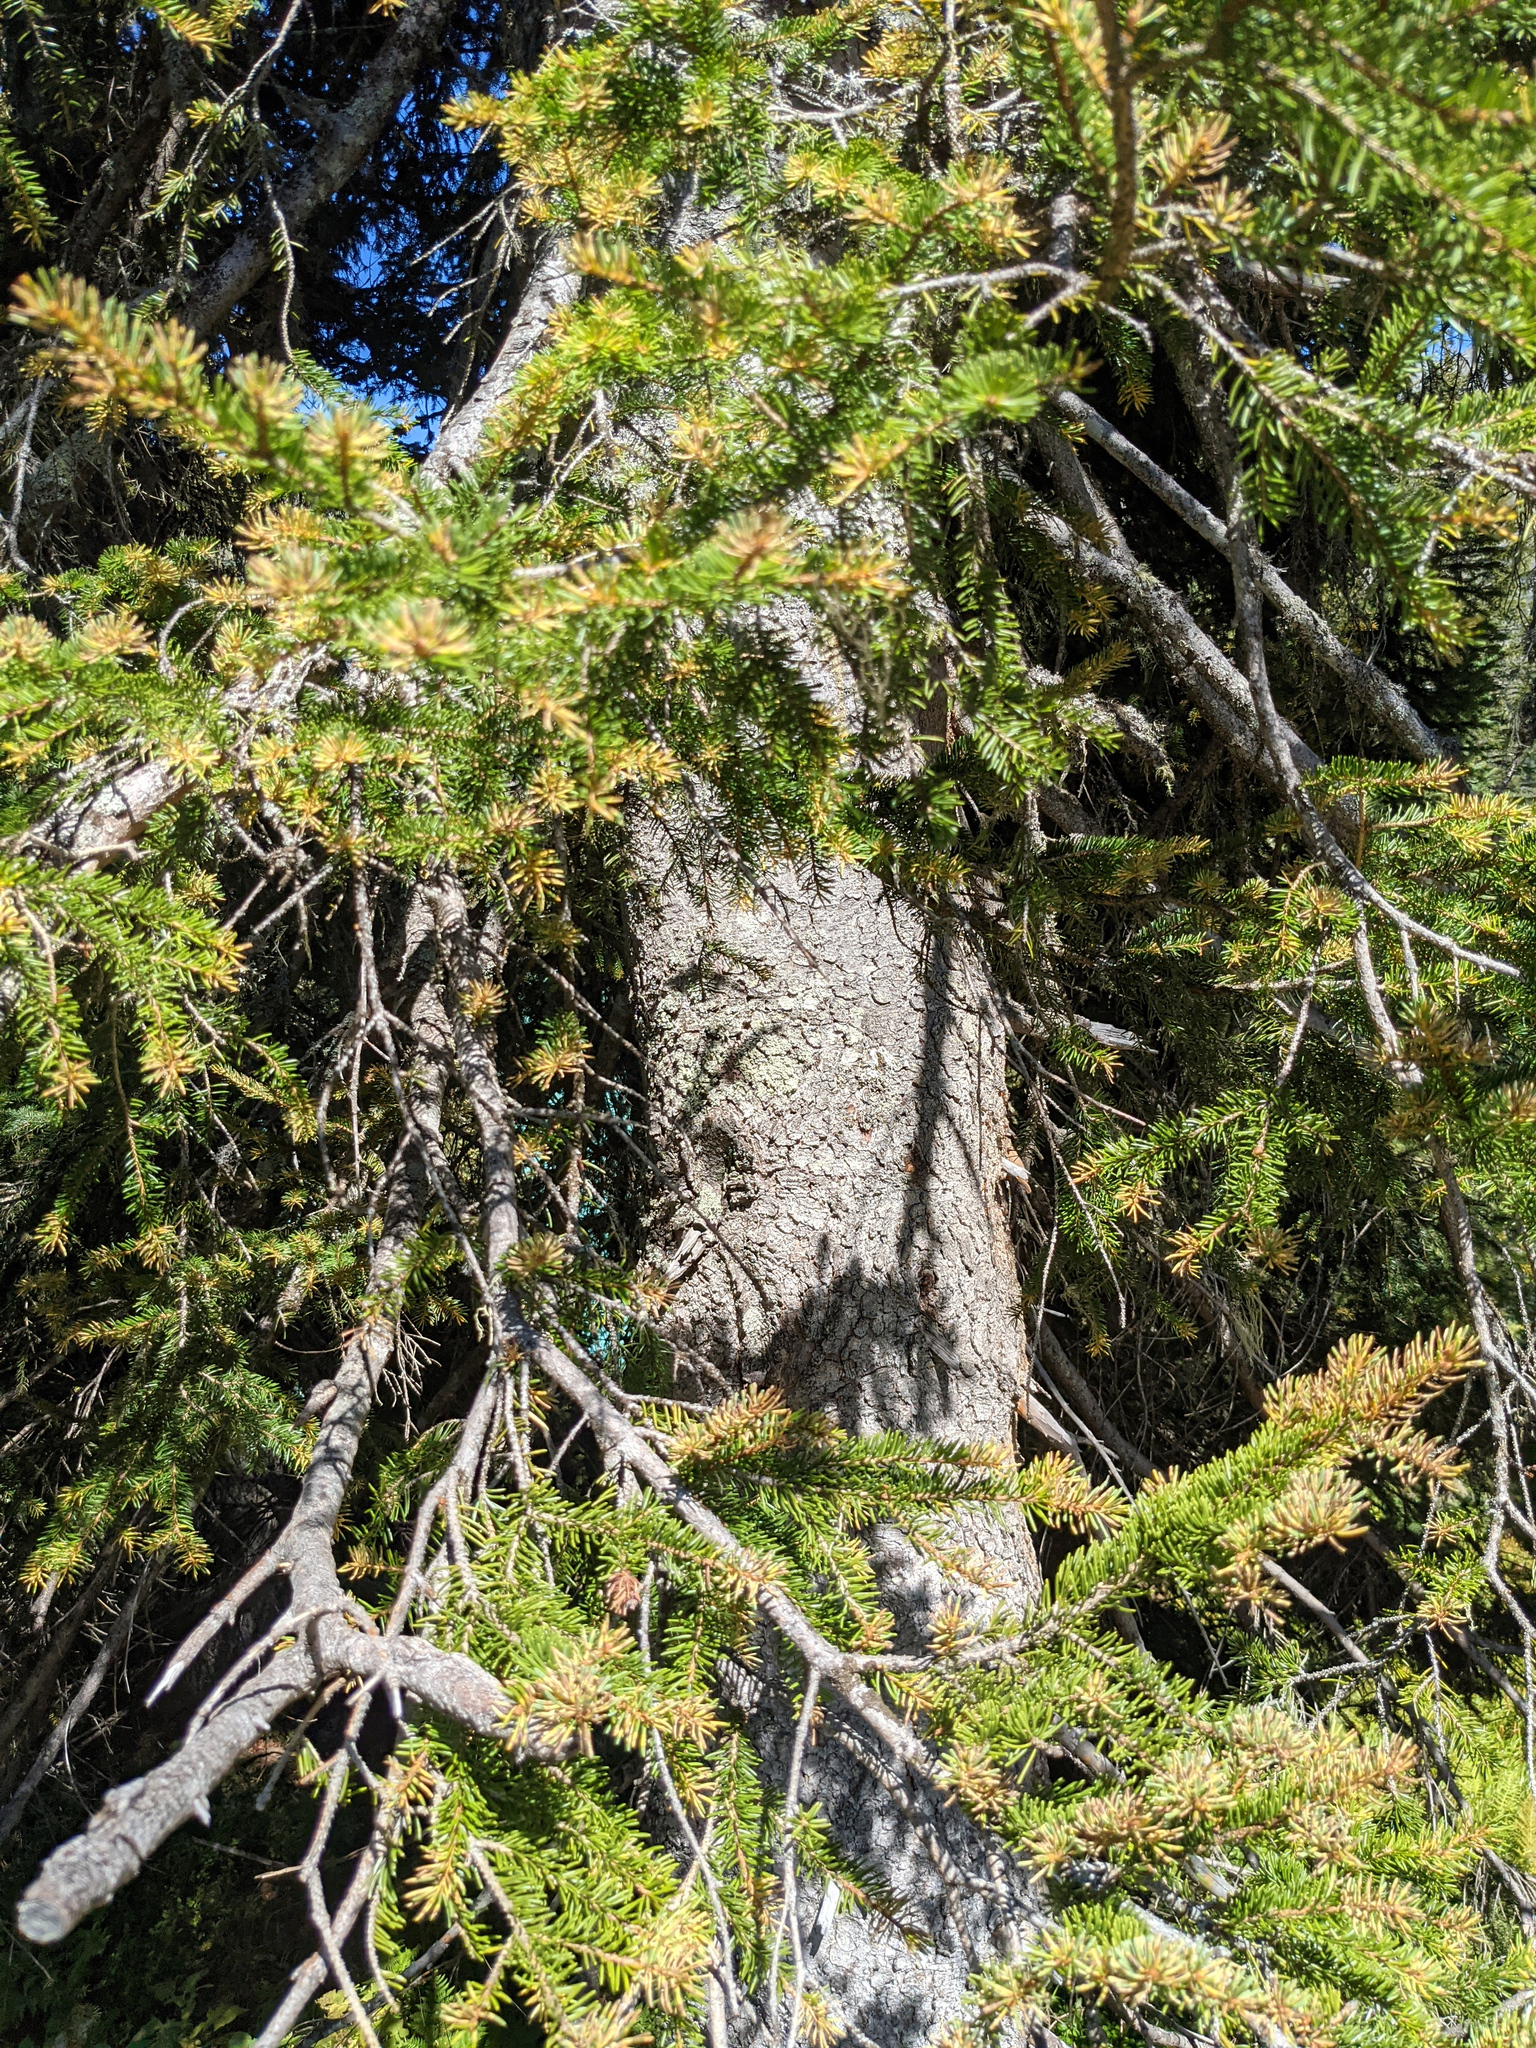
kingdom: Plantae
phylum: Tracheophyta
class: Pinopsida
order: Pinales
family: Pinaceae
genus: Picea
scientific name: Picea abies
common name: Norway spruce
